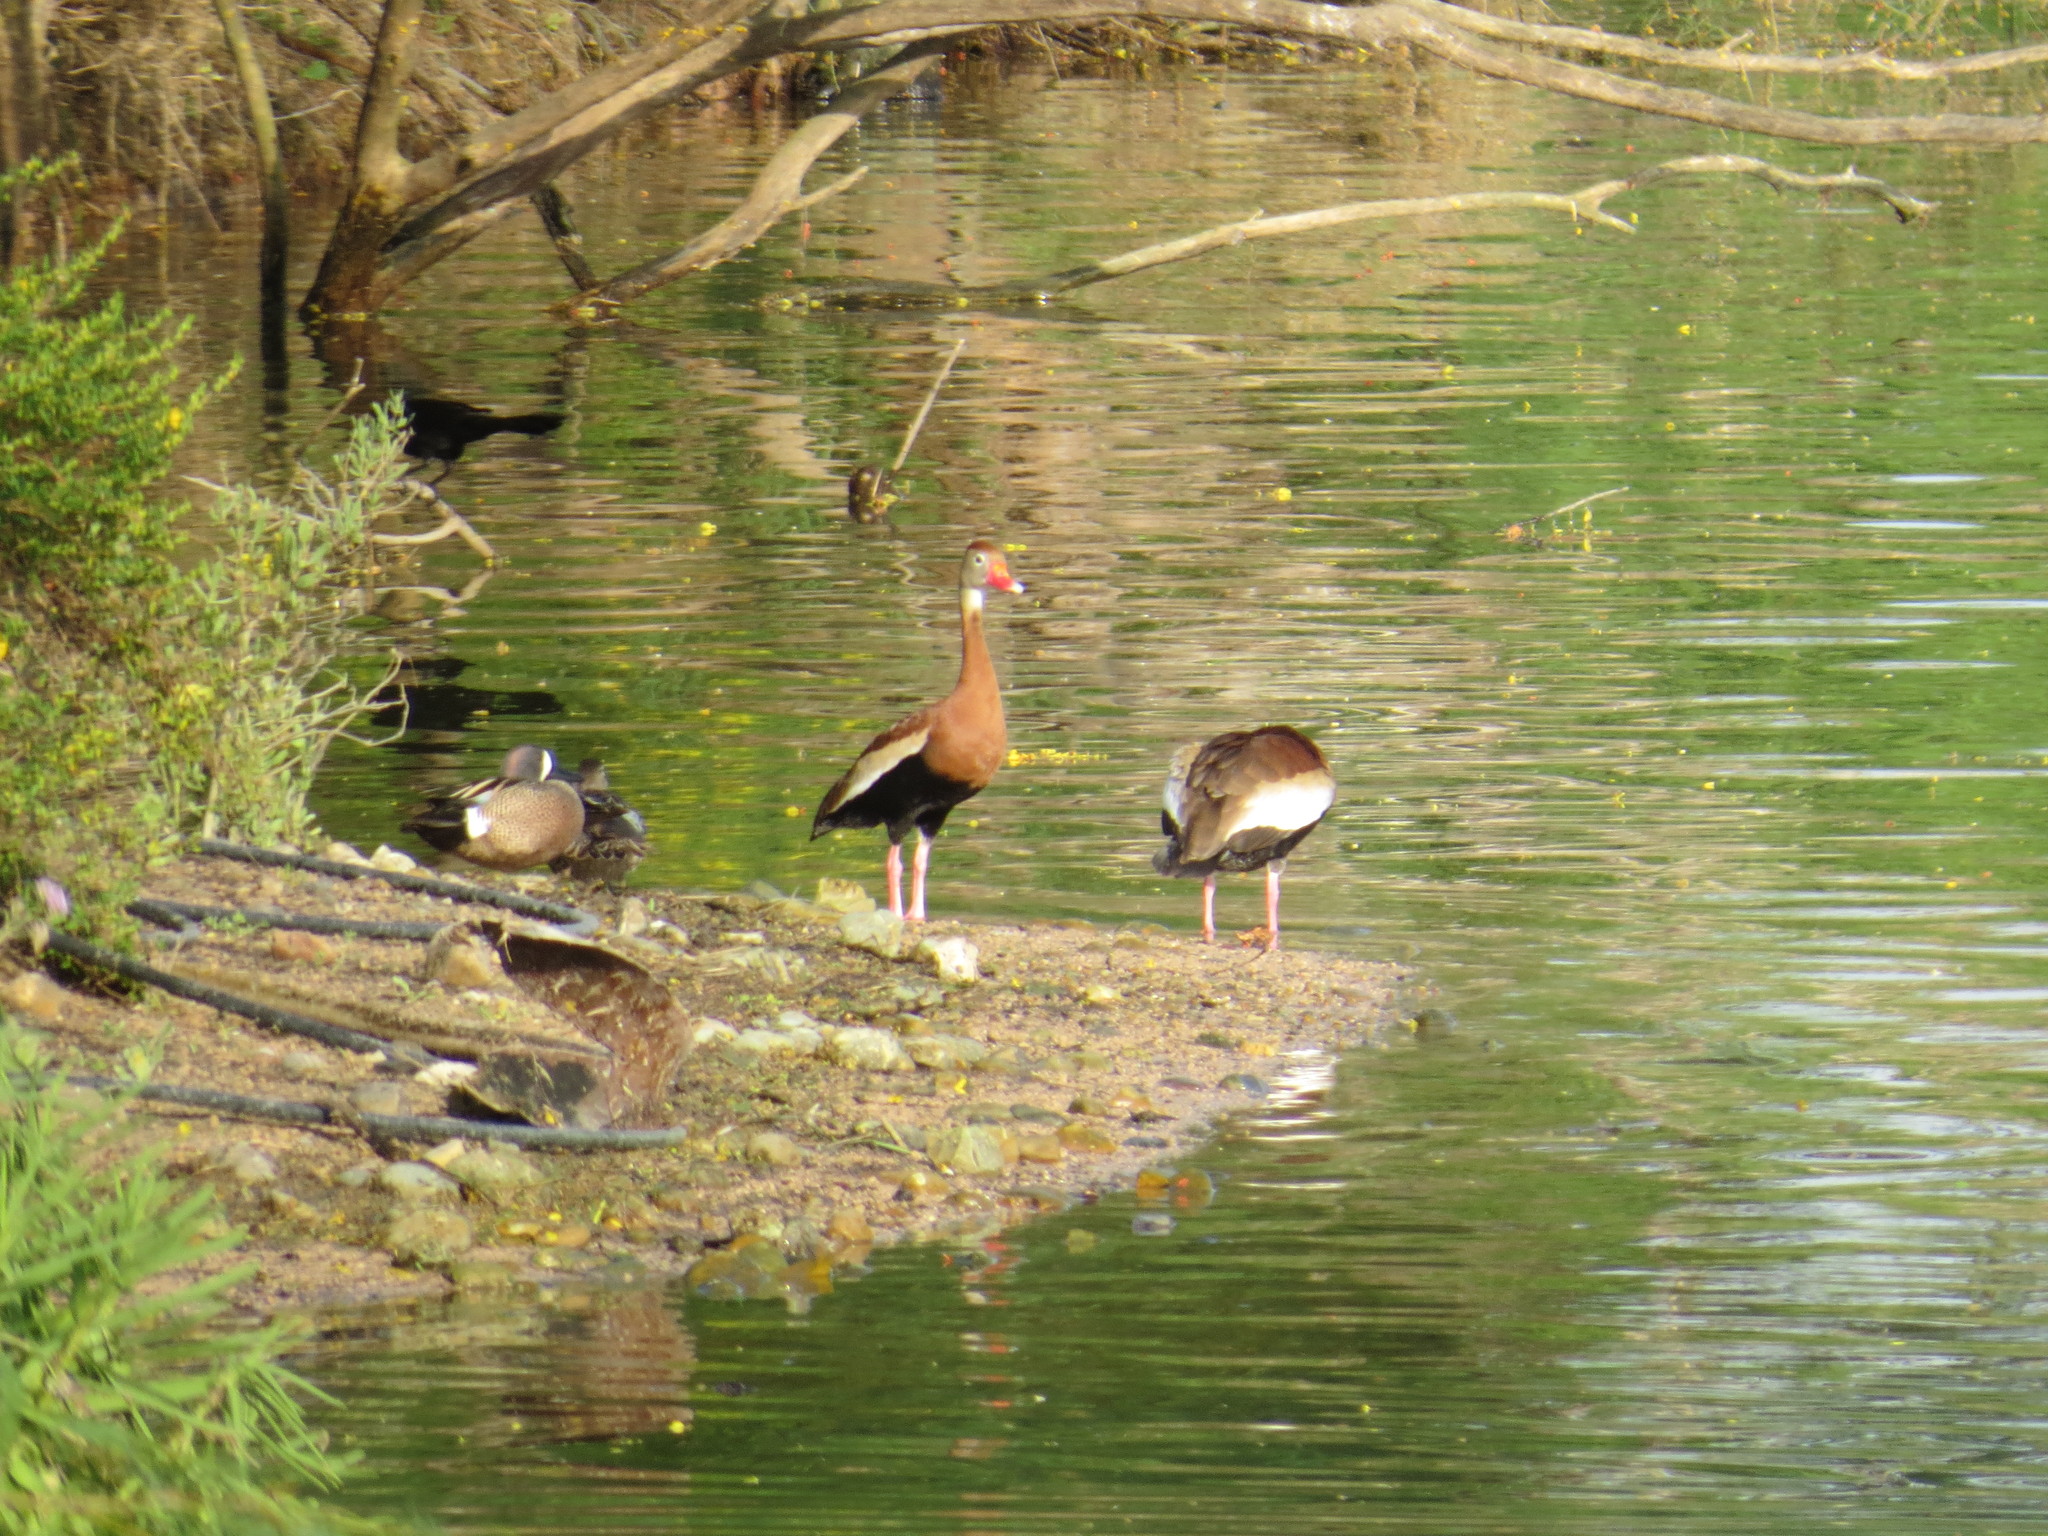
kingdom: Animalia
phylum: Chordata
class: Aves
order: Anseriformes
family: Anatidae
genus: Dendrocygna
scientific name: Dendrocygna autumnalis
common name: Black-bellied whistling duck
